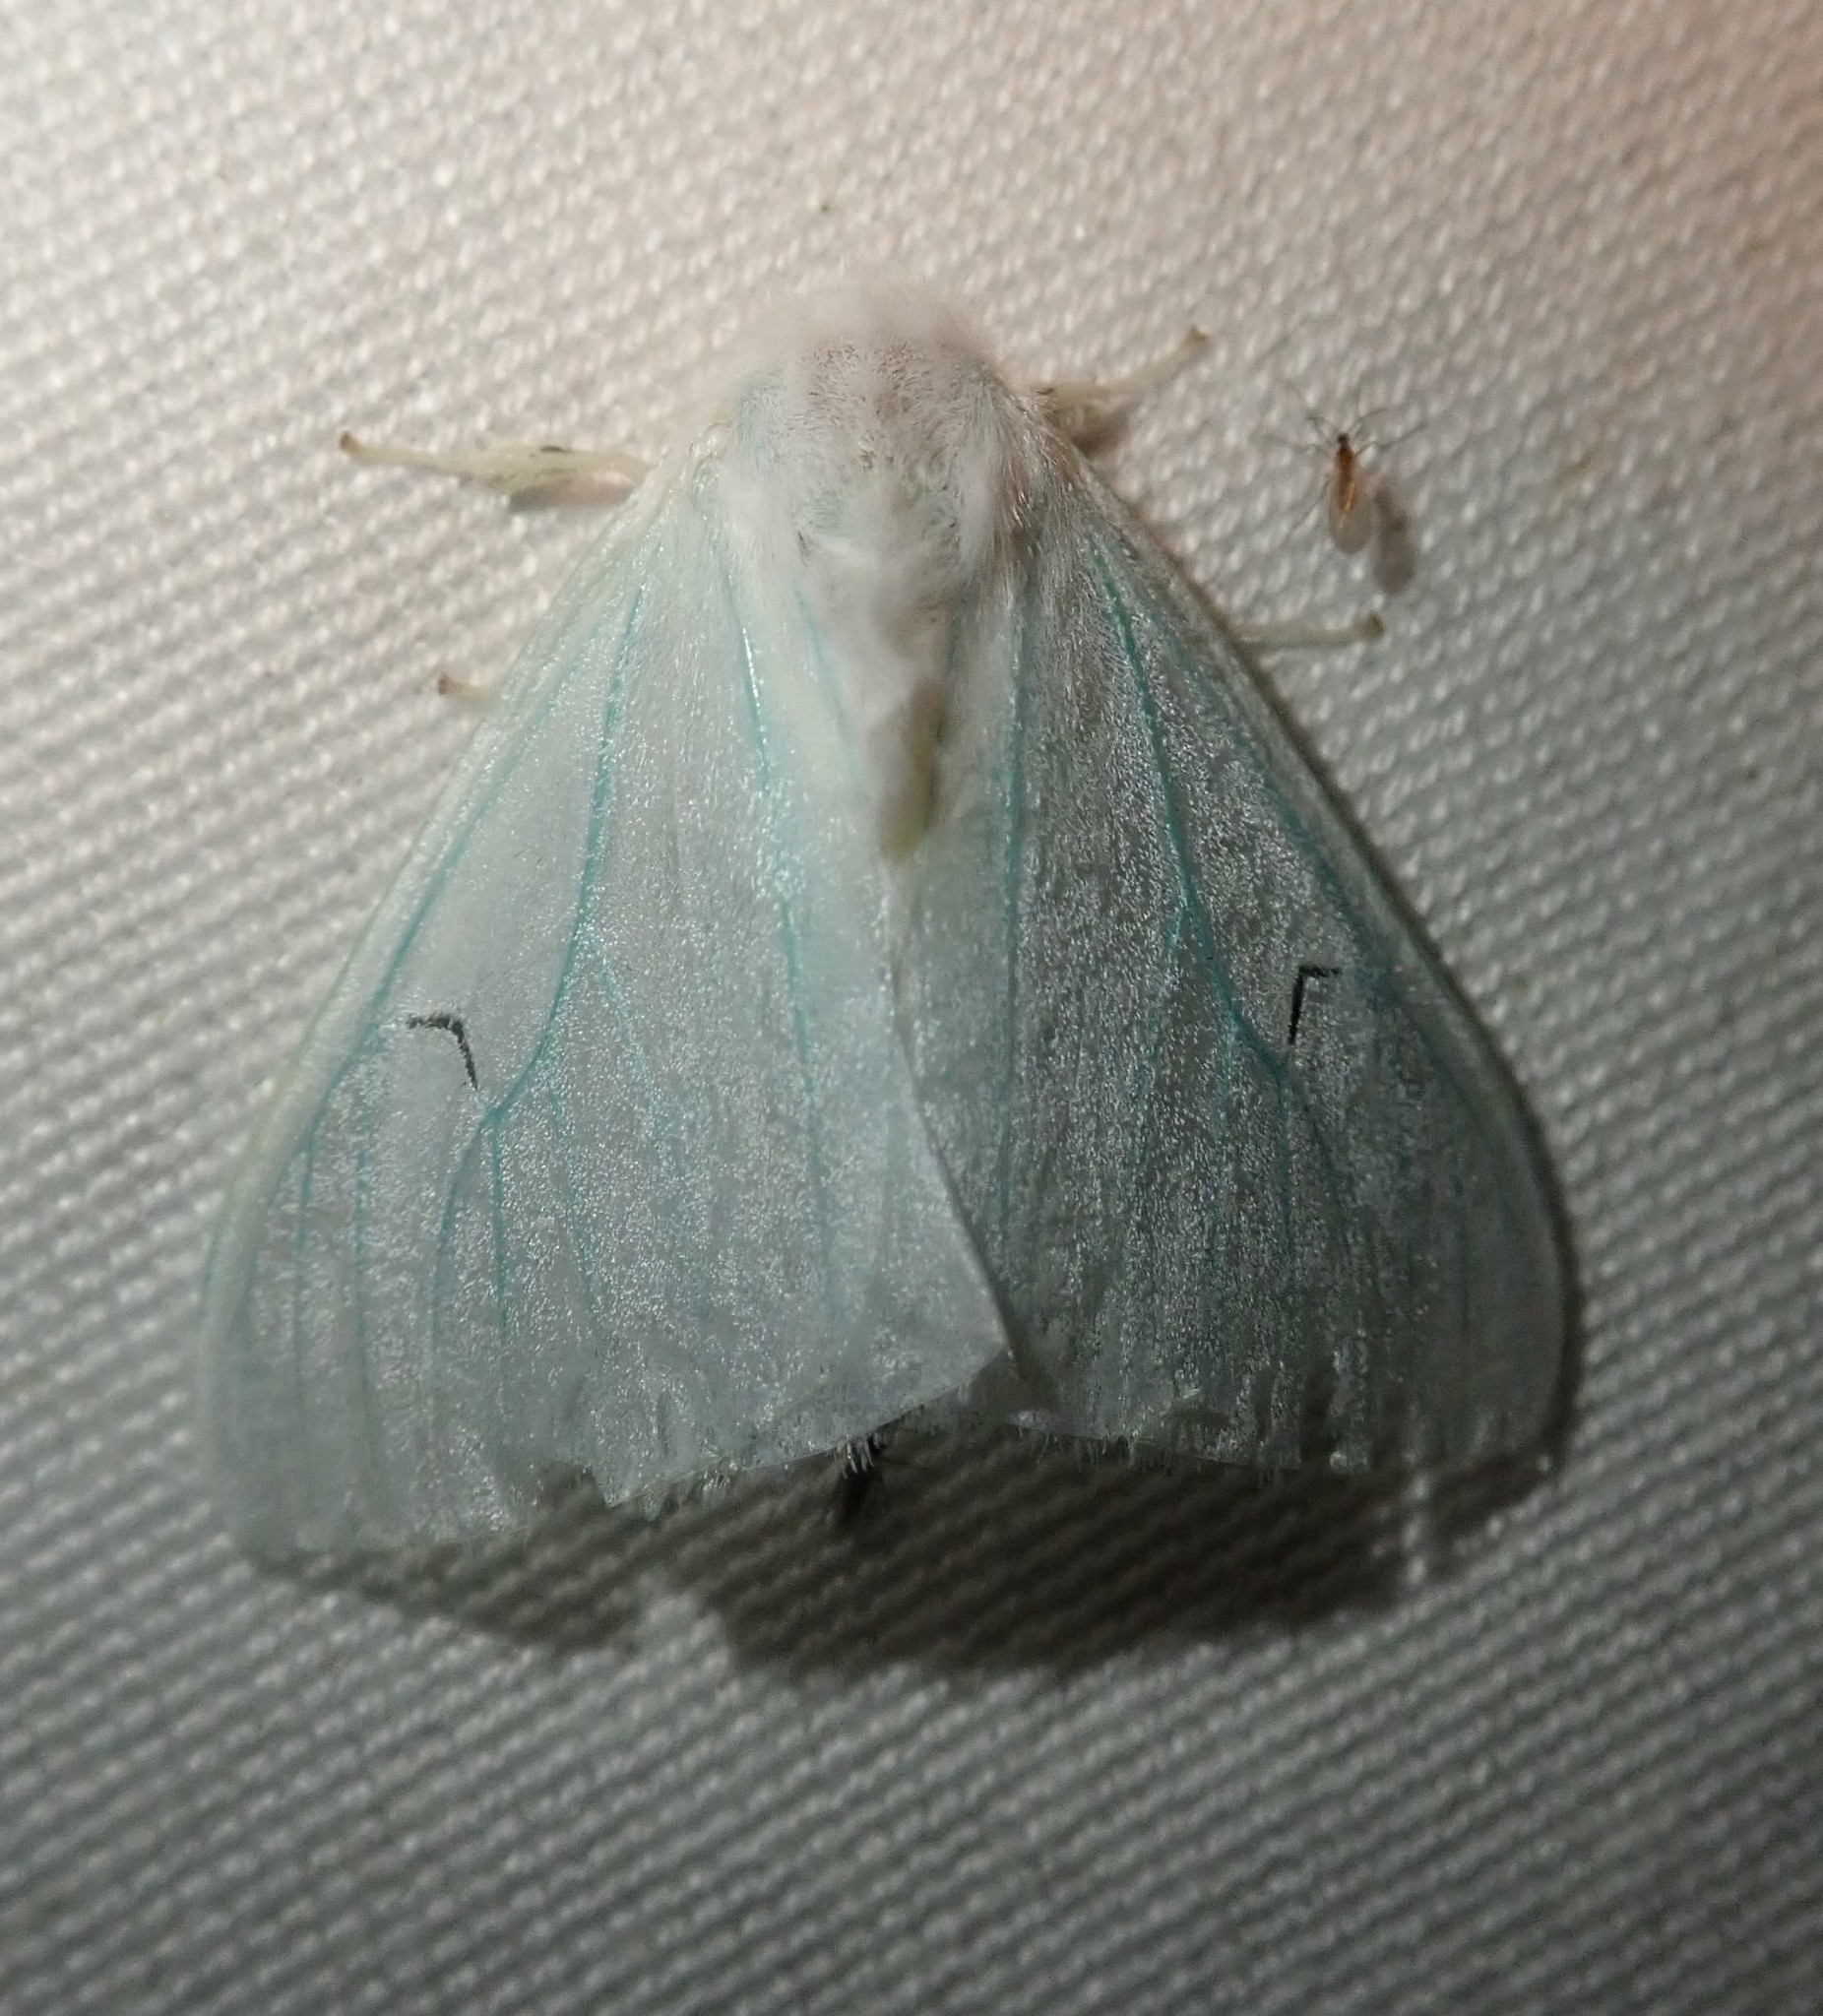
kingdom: Animalia
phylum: Arthropoda
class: Insecta
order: Lepidoptera
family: Erebidae
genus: Arctornis
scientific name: Arctornis l-nigrum
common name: Black v moth
